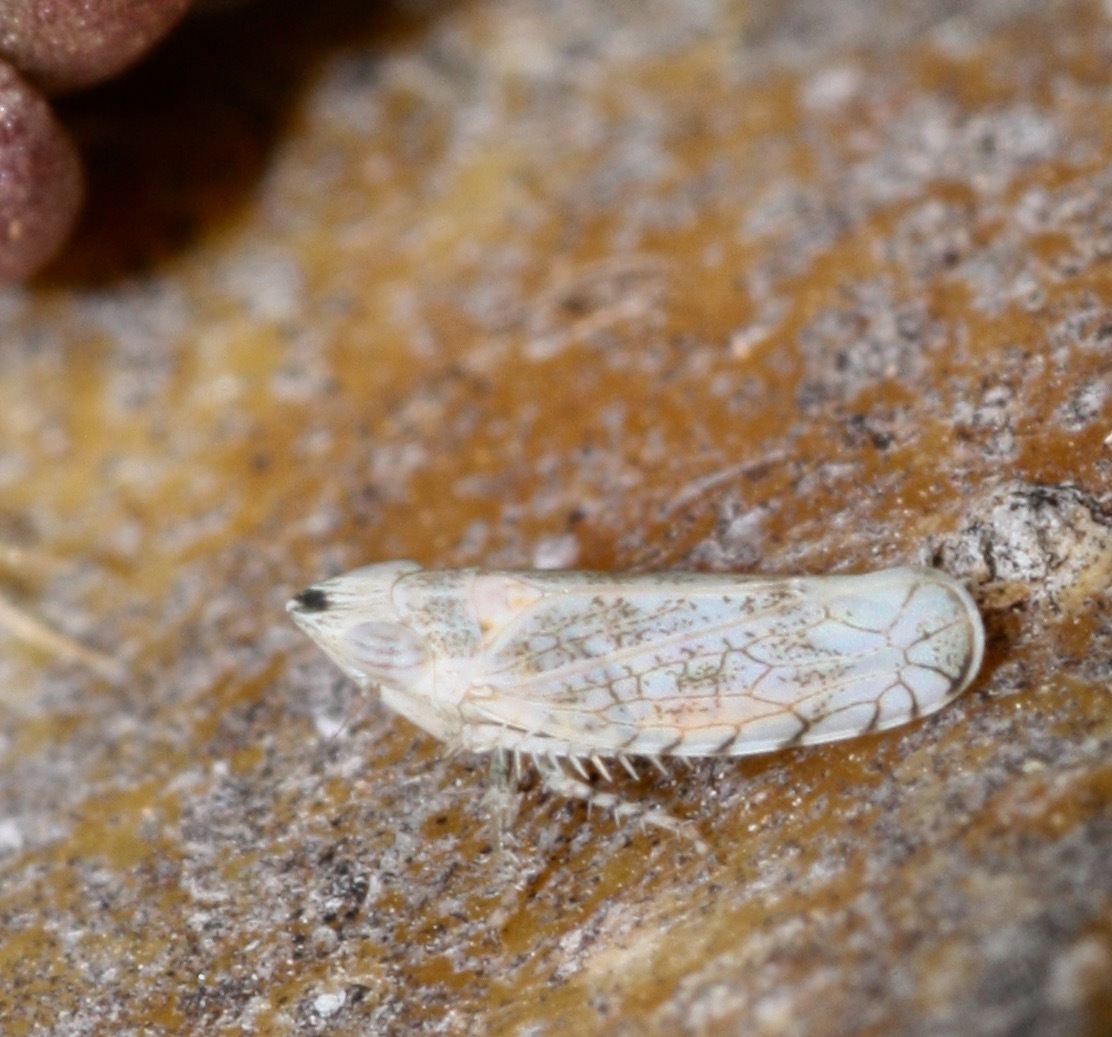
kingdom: Animalia
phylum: Arthropoda
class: Insecta
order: Hemiptera
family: Cicadellidae
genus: Scaphytopius
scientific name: Scaphytopius heldoranus
